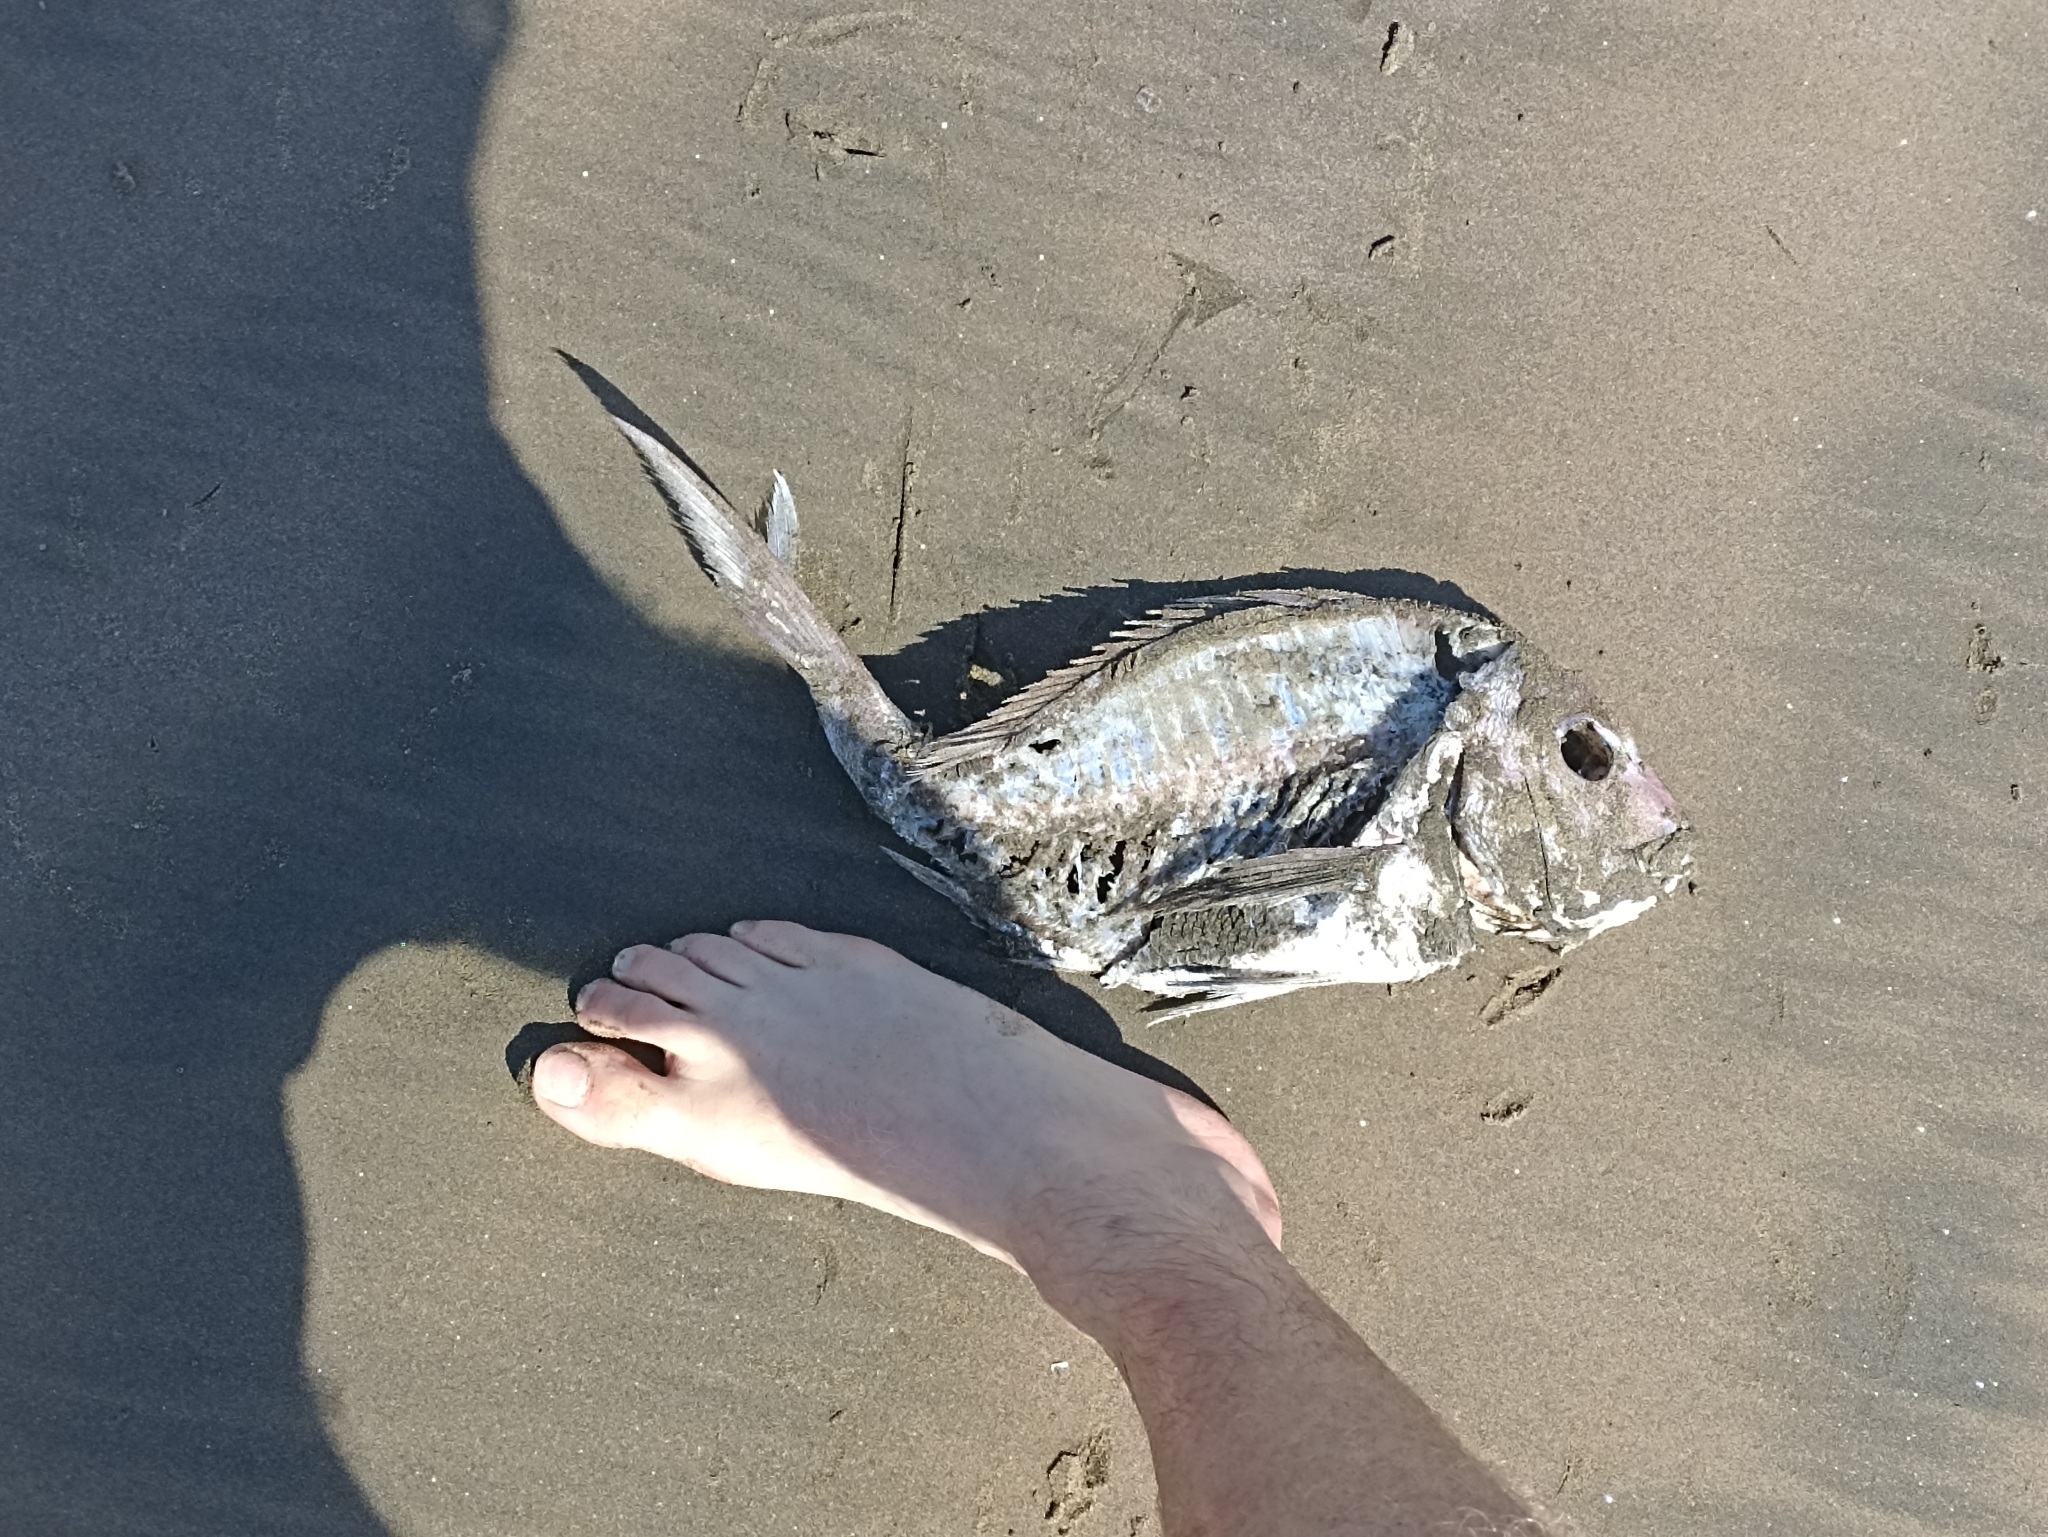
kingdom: Animalia
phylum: Chordata
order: Perciformes
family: Sparidae
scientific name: Sparidae
